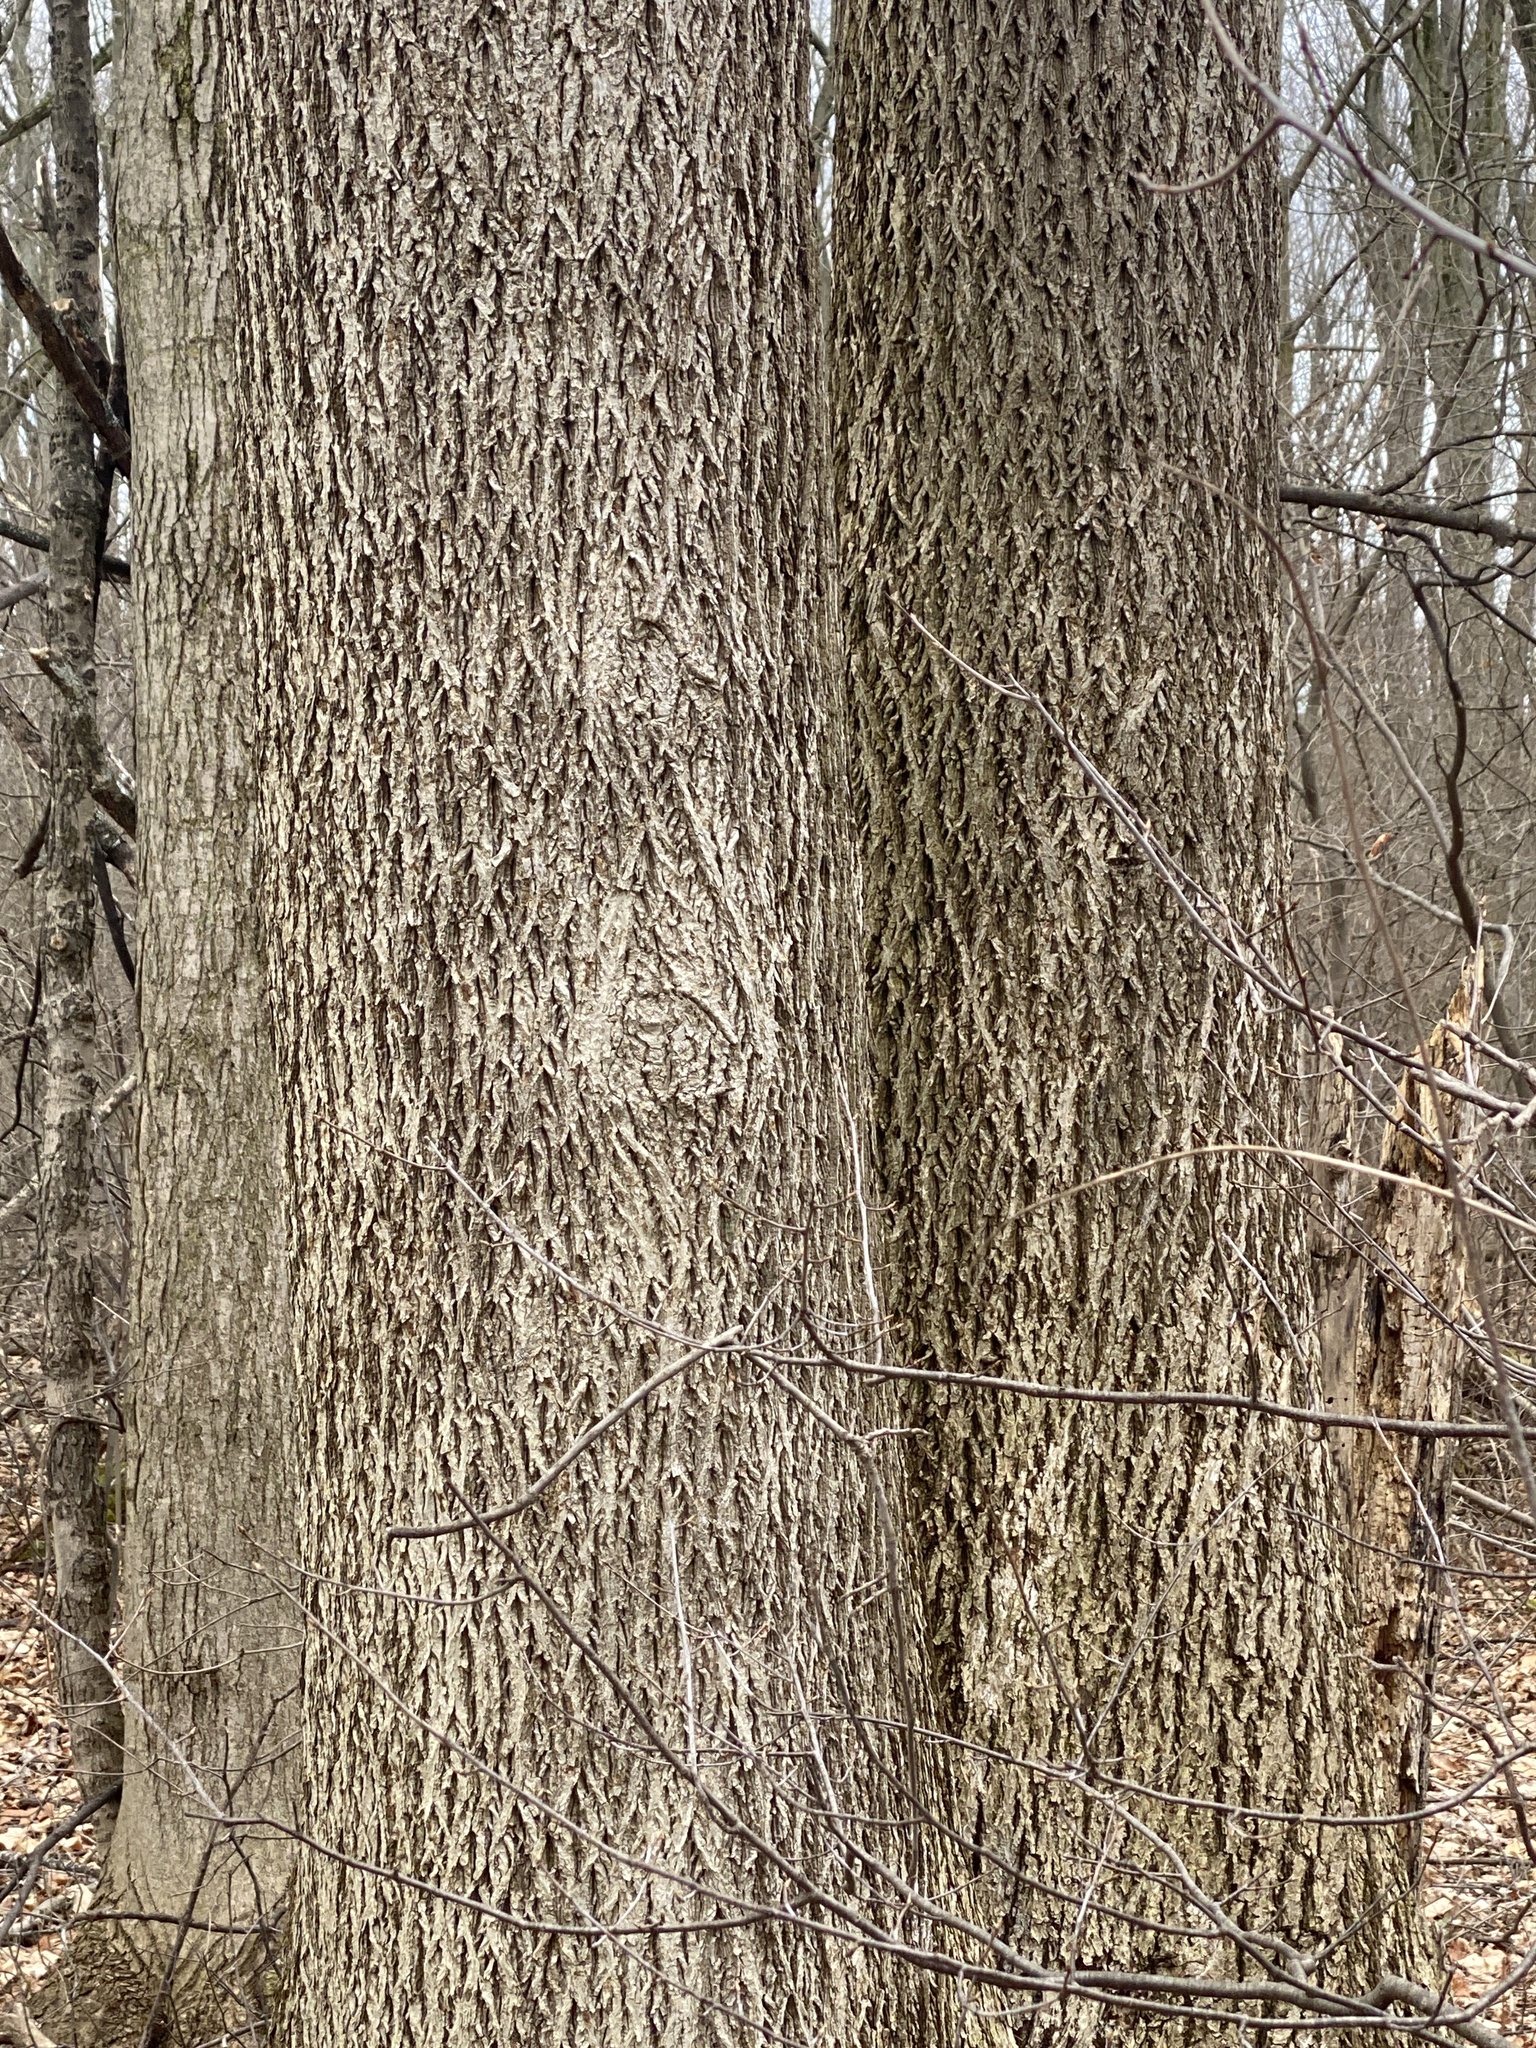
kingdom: Plantae
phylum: Tracheophyta
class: Magnoliopsida
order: Fagales
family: Juglandaceae
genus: Carya
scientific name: Carya cordiformis
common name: Bitternut hickory
